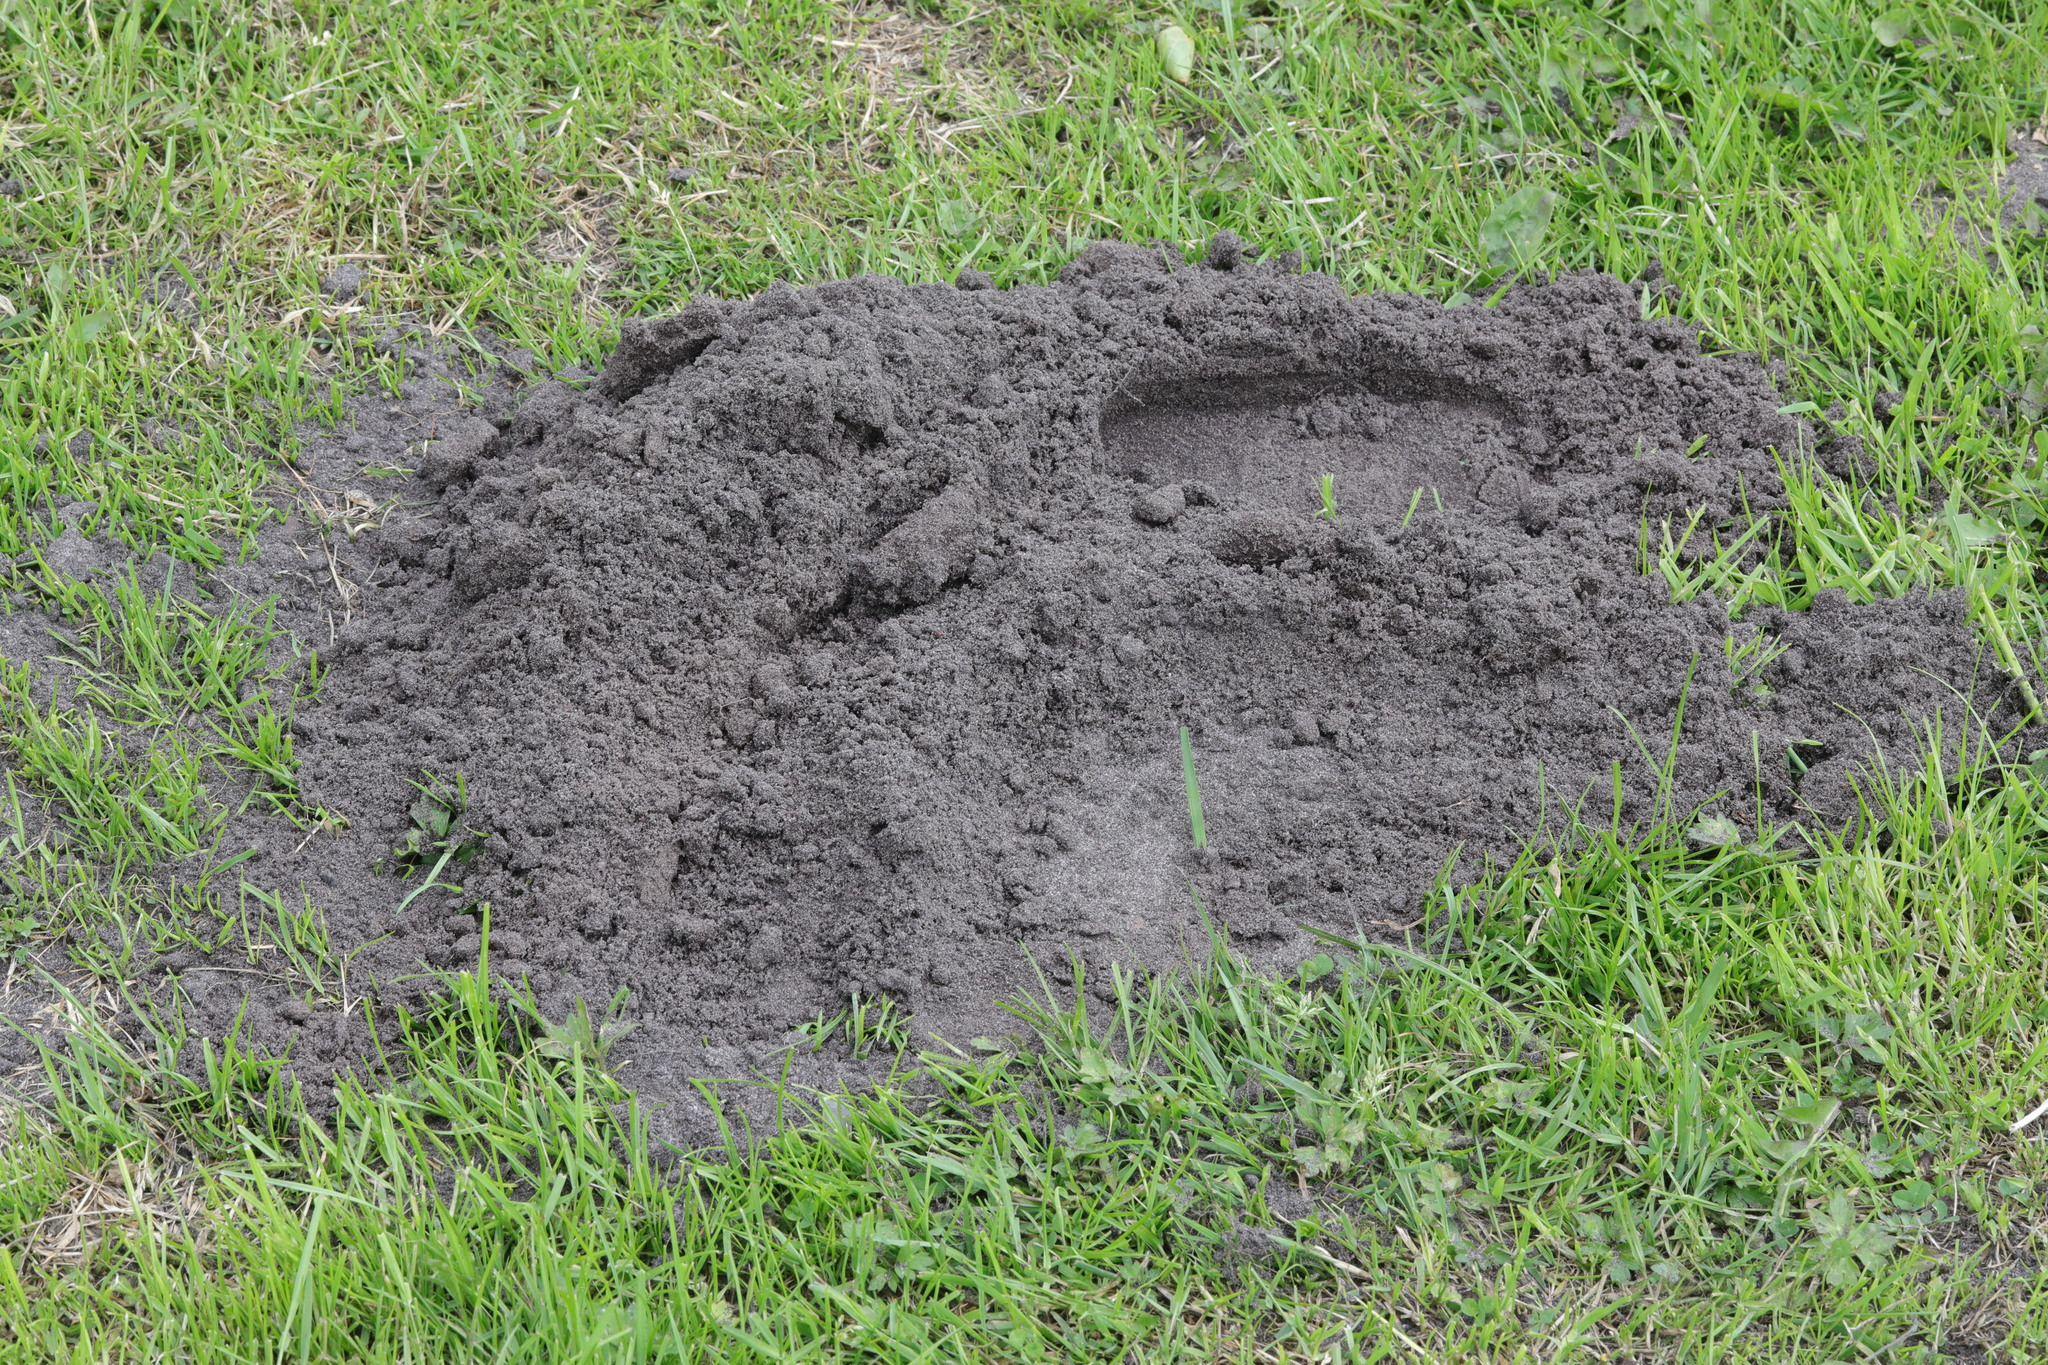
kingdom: Animalia
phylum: Chordata
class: Mammalia
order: Soricomorpha
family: Talpidae
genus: Talpa
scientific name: Talpa europaea
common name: European mole
